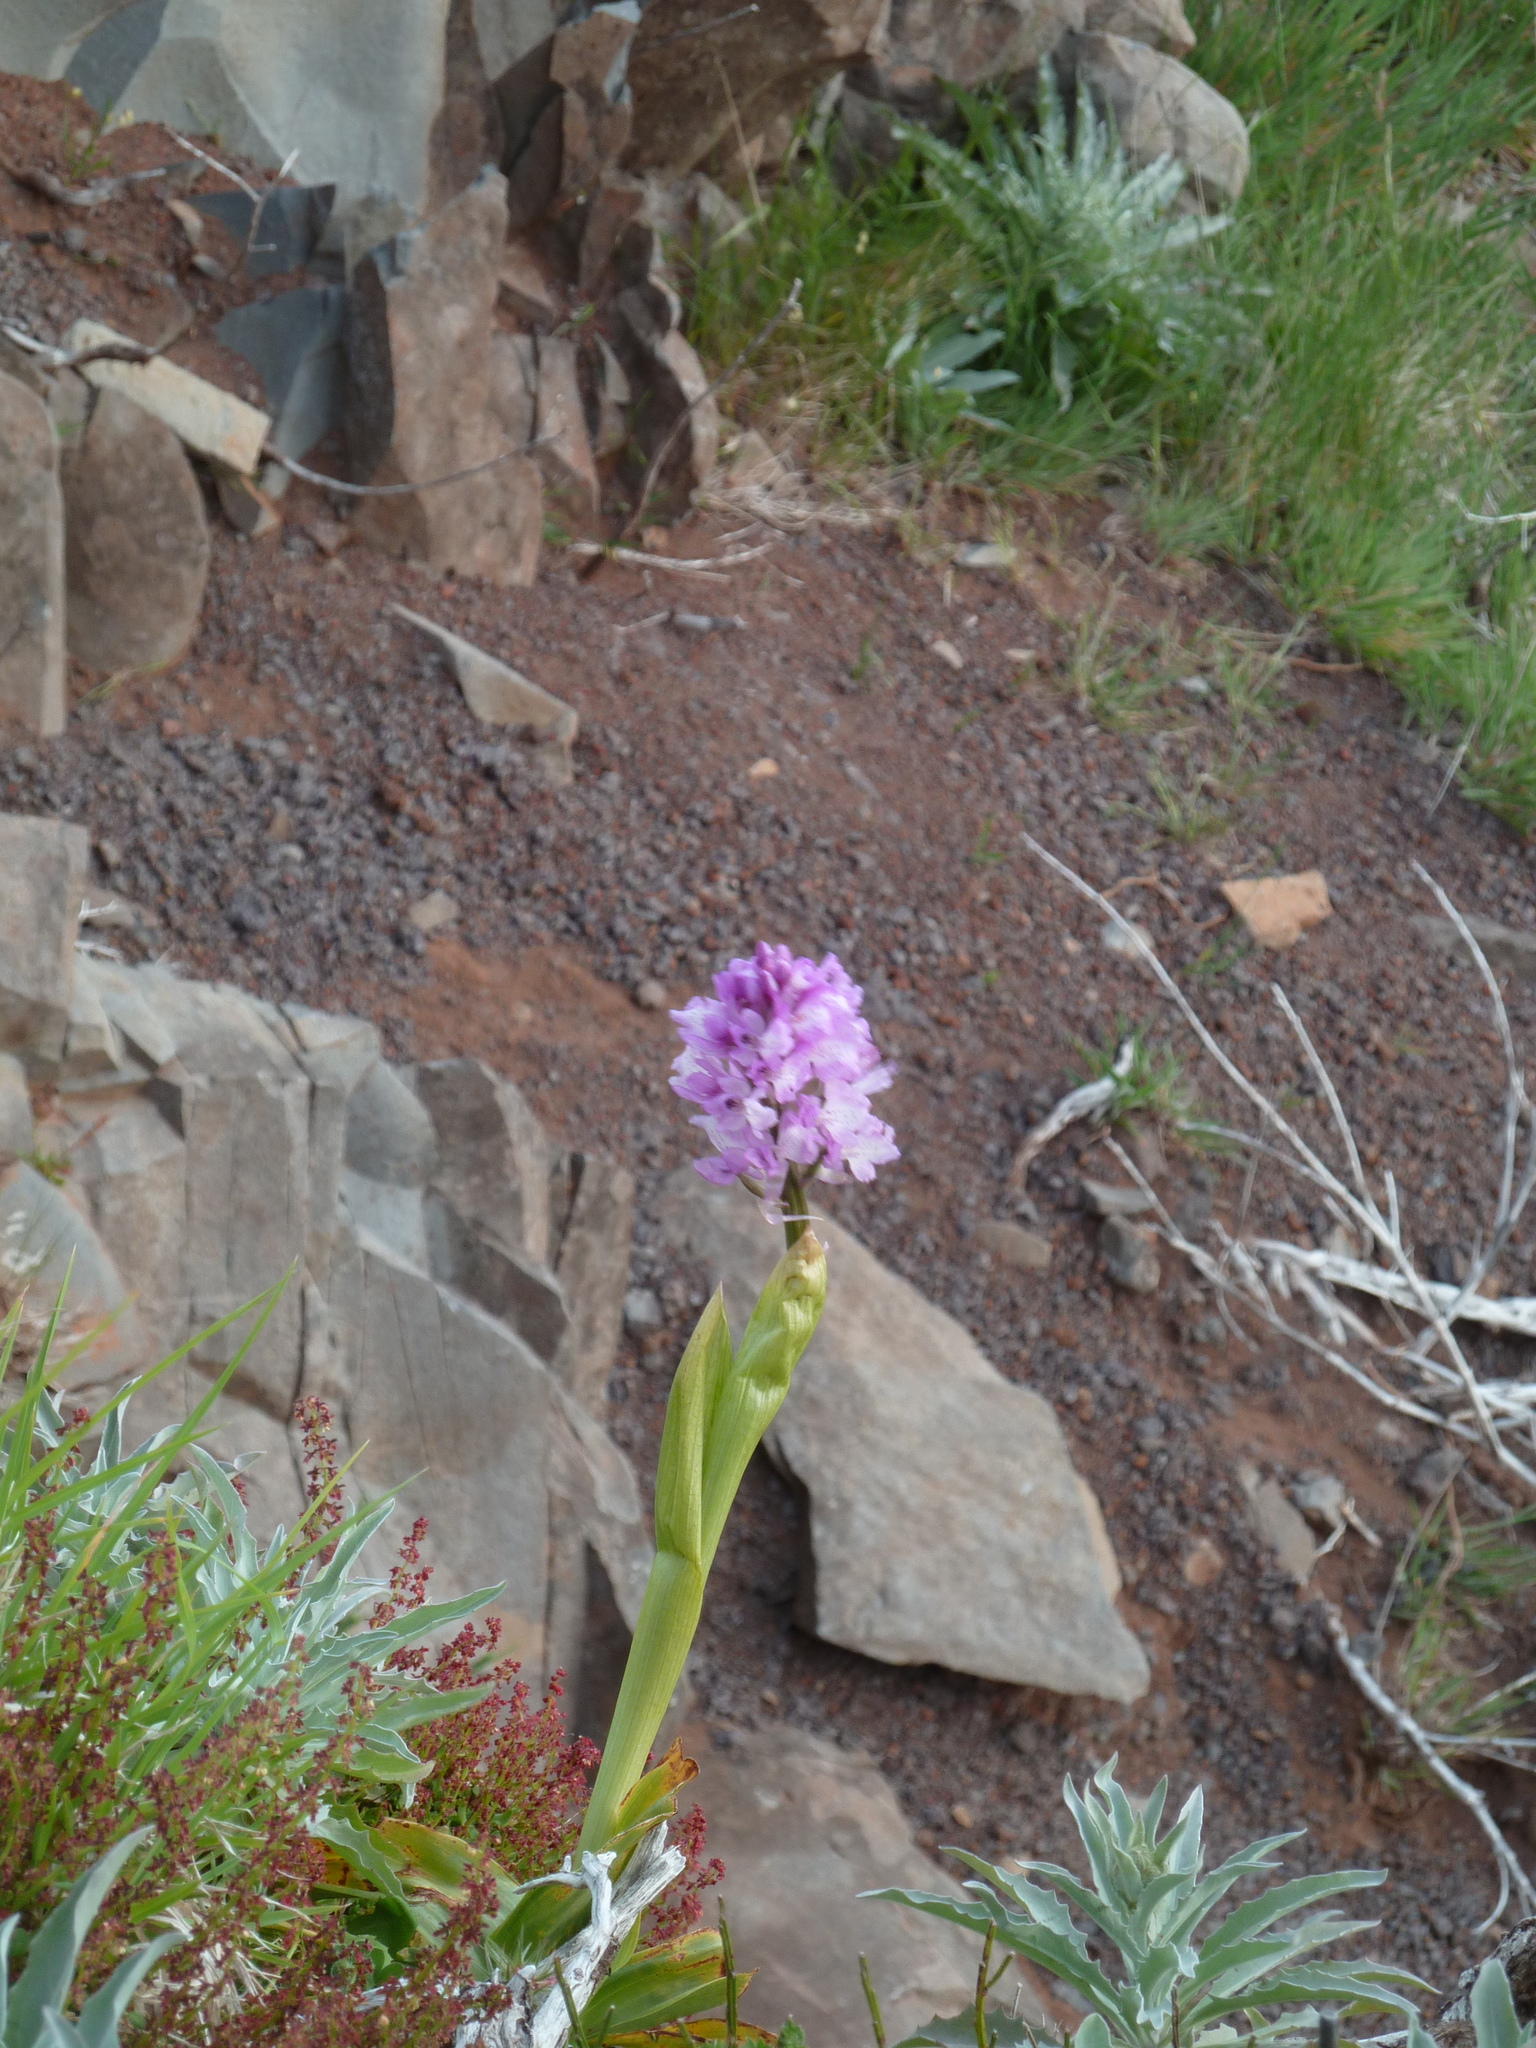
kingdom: Plantae
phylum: Tracheophyta
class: Liliopsida
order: Asparagales
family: Orchidaceae
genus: Orchis
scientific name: Orchis mascula
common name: Early-purple orchid
